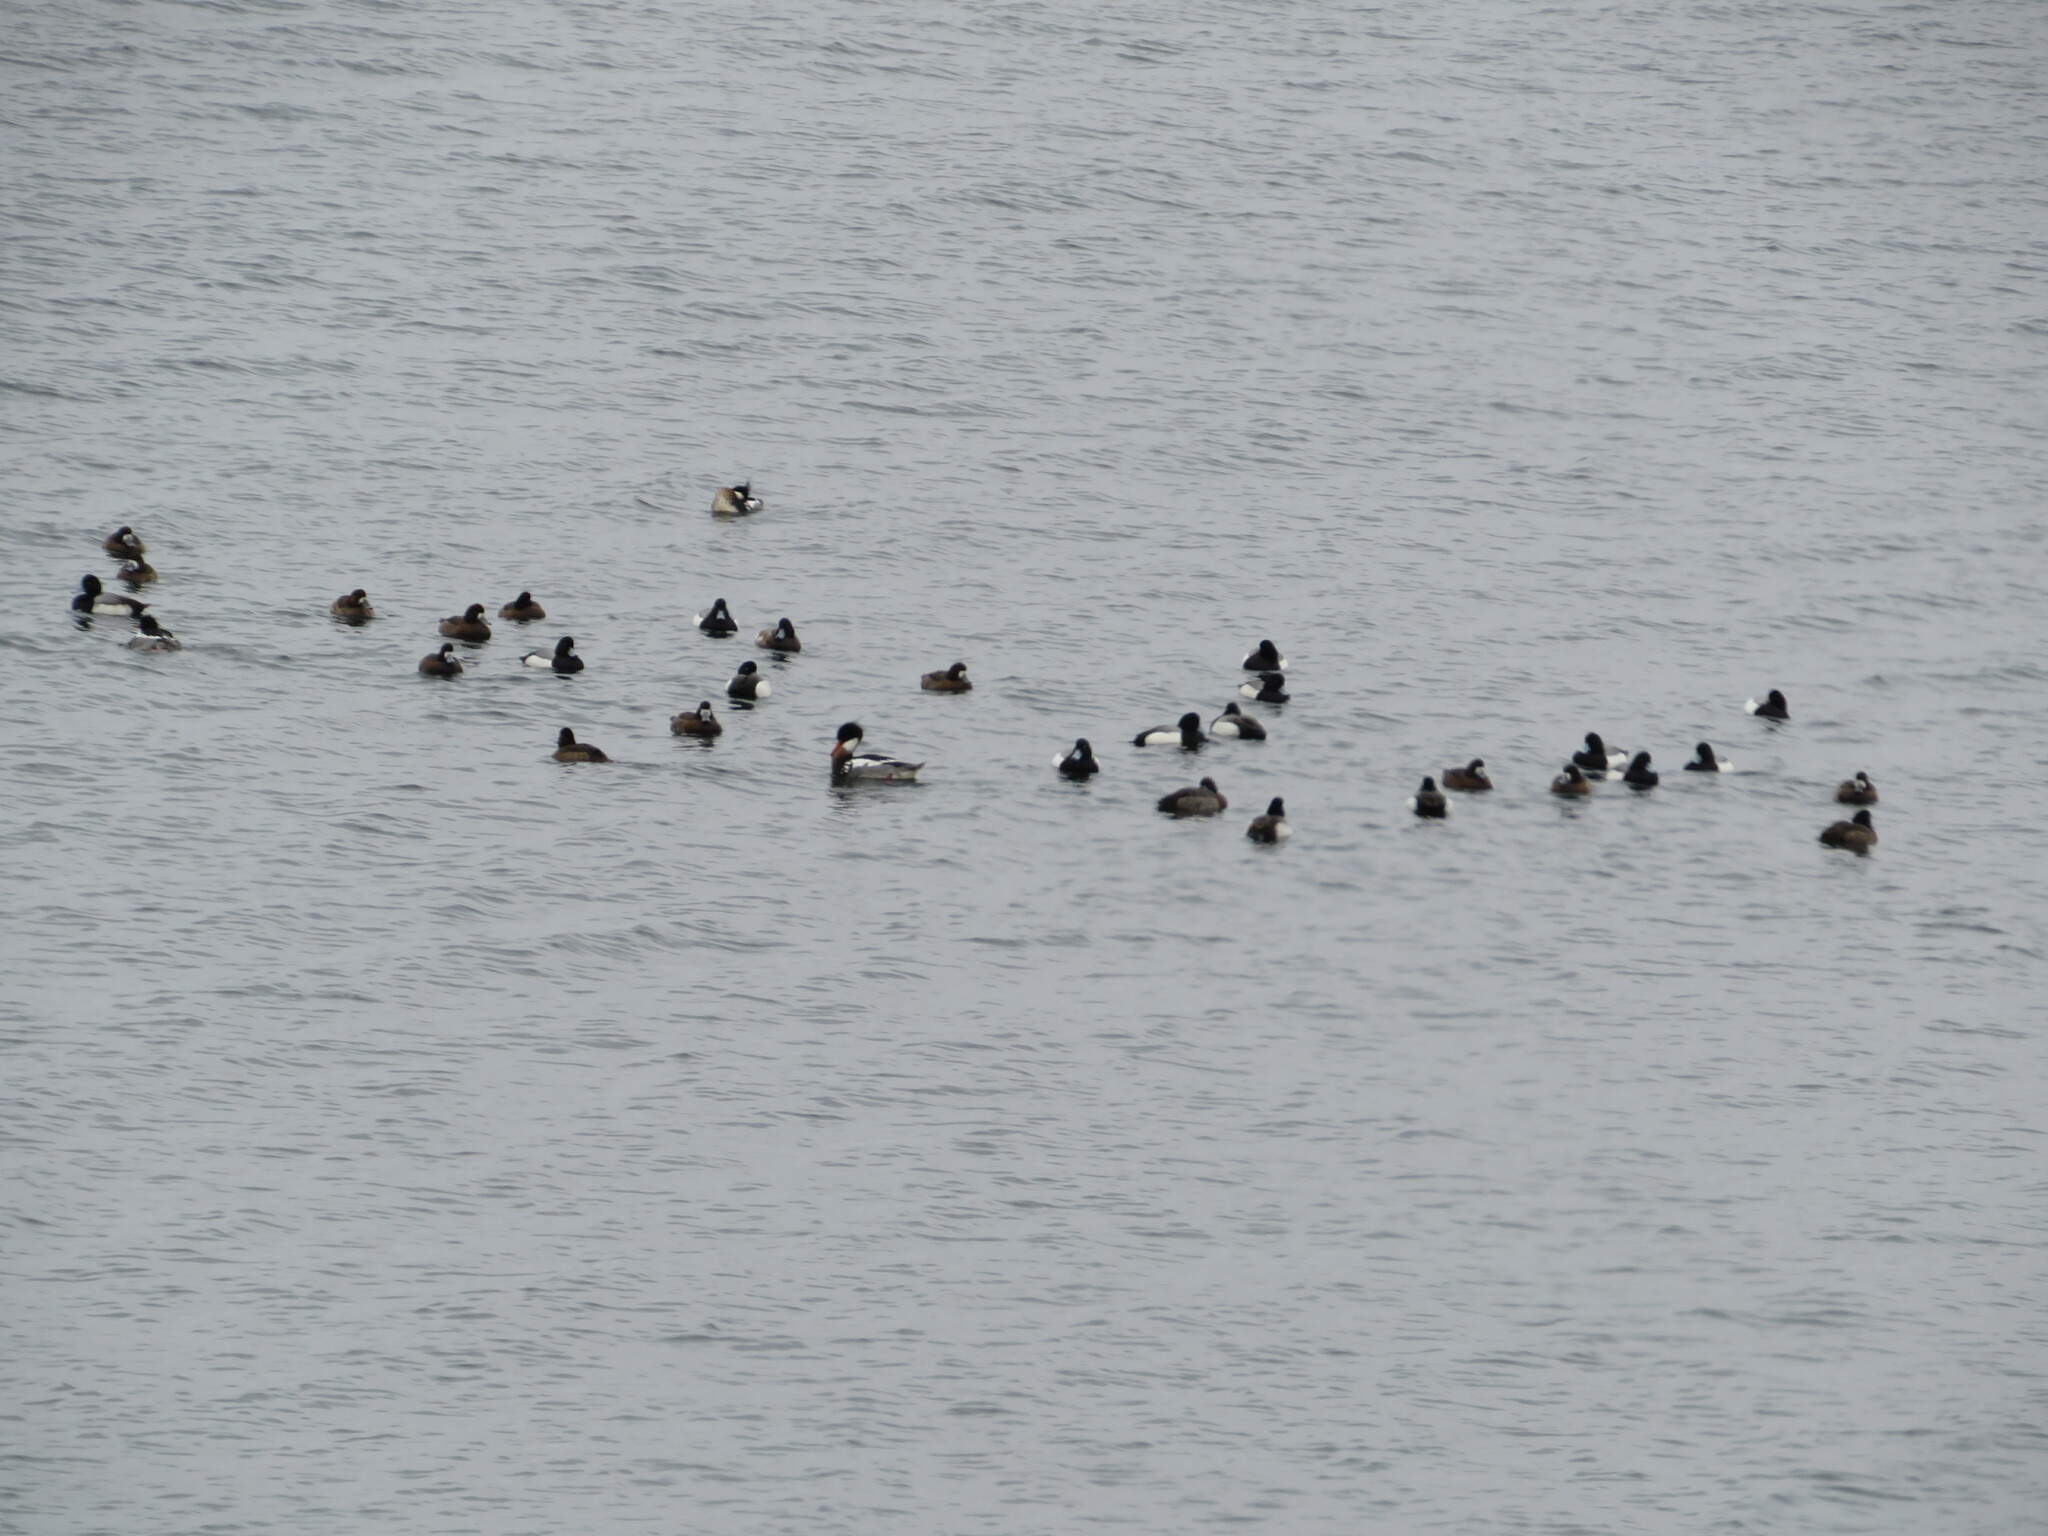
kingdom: Animalia
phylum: Chordata
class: Aves
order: Anseriformes
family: Anatidae
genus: Aythya
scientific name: Aythya marila
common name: Greater scaup
